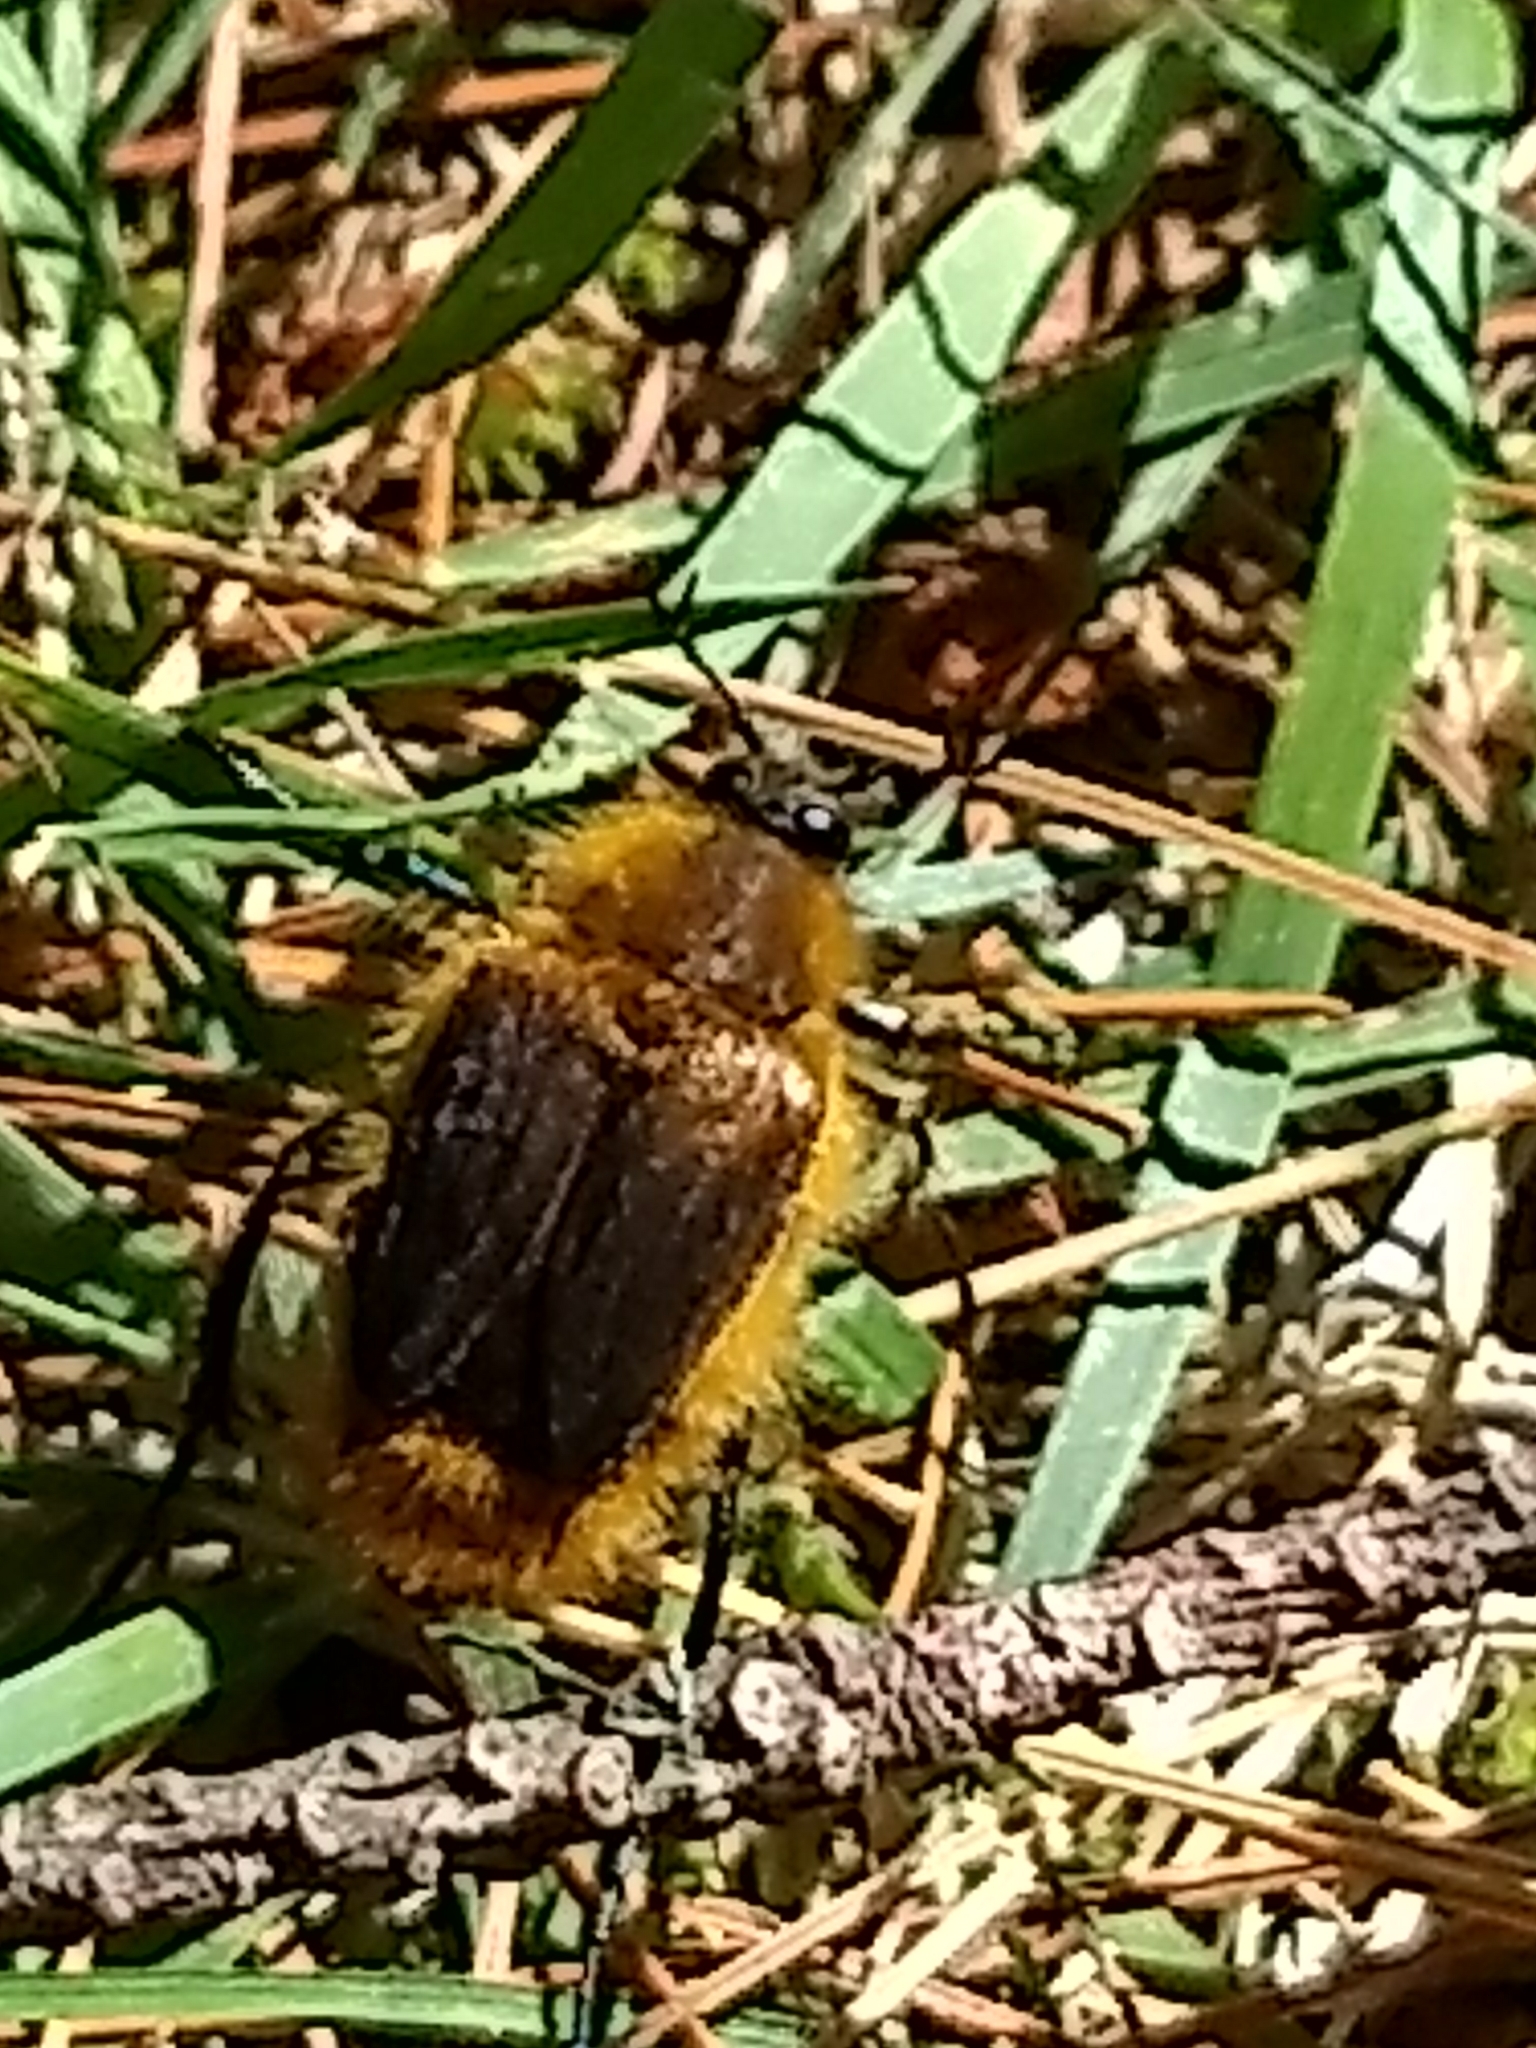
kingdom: Animalia
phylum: Arthropoda
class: Insecta
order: Coleoptera
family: Glaphyridae
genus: Lichnanthe
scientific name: Lichnanthe vulpina
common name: Cranberry root grub
